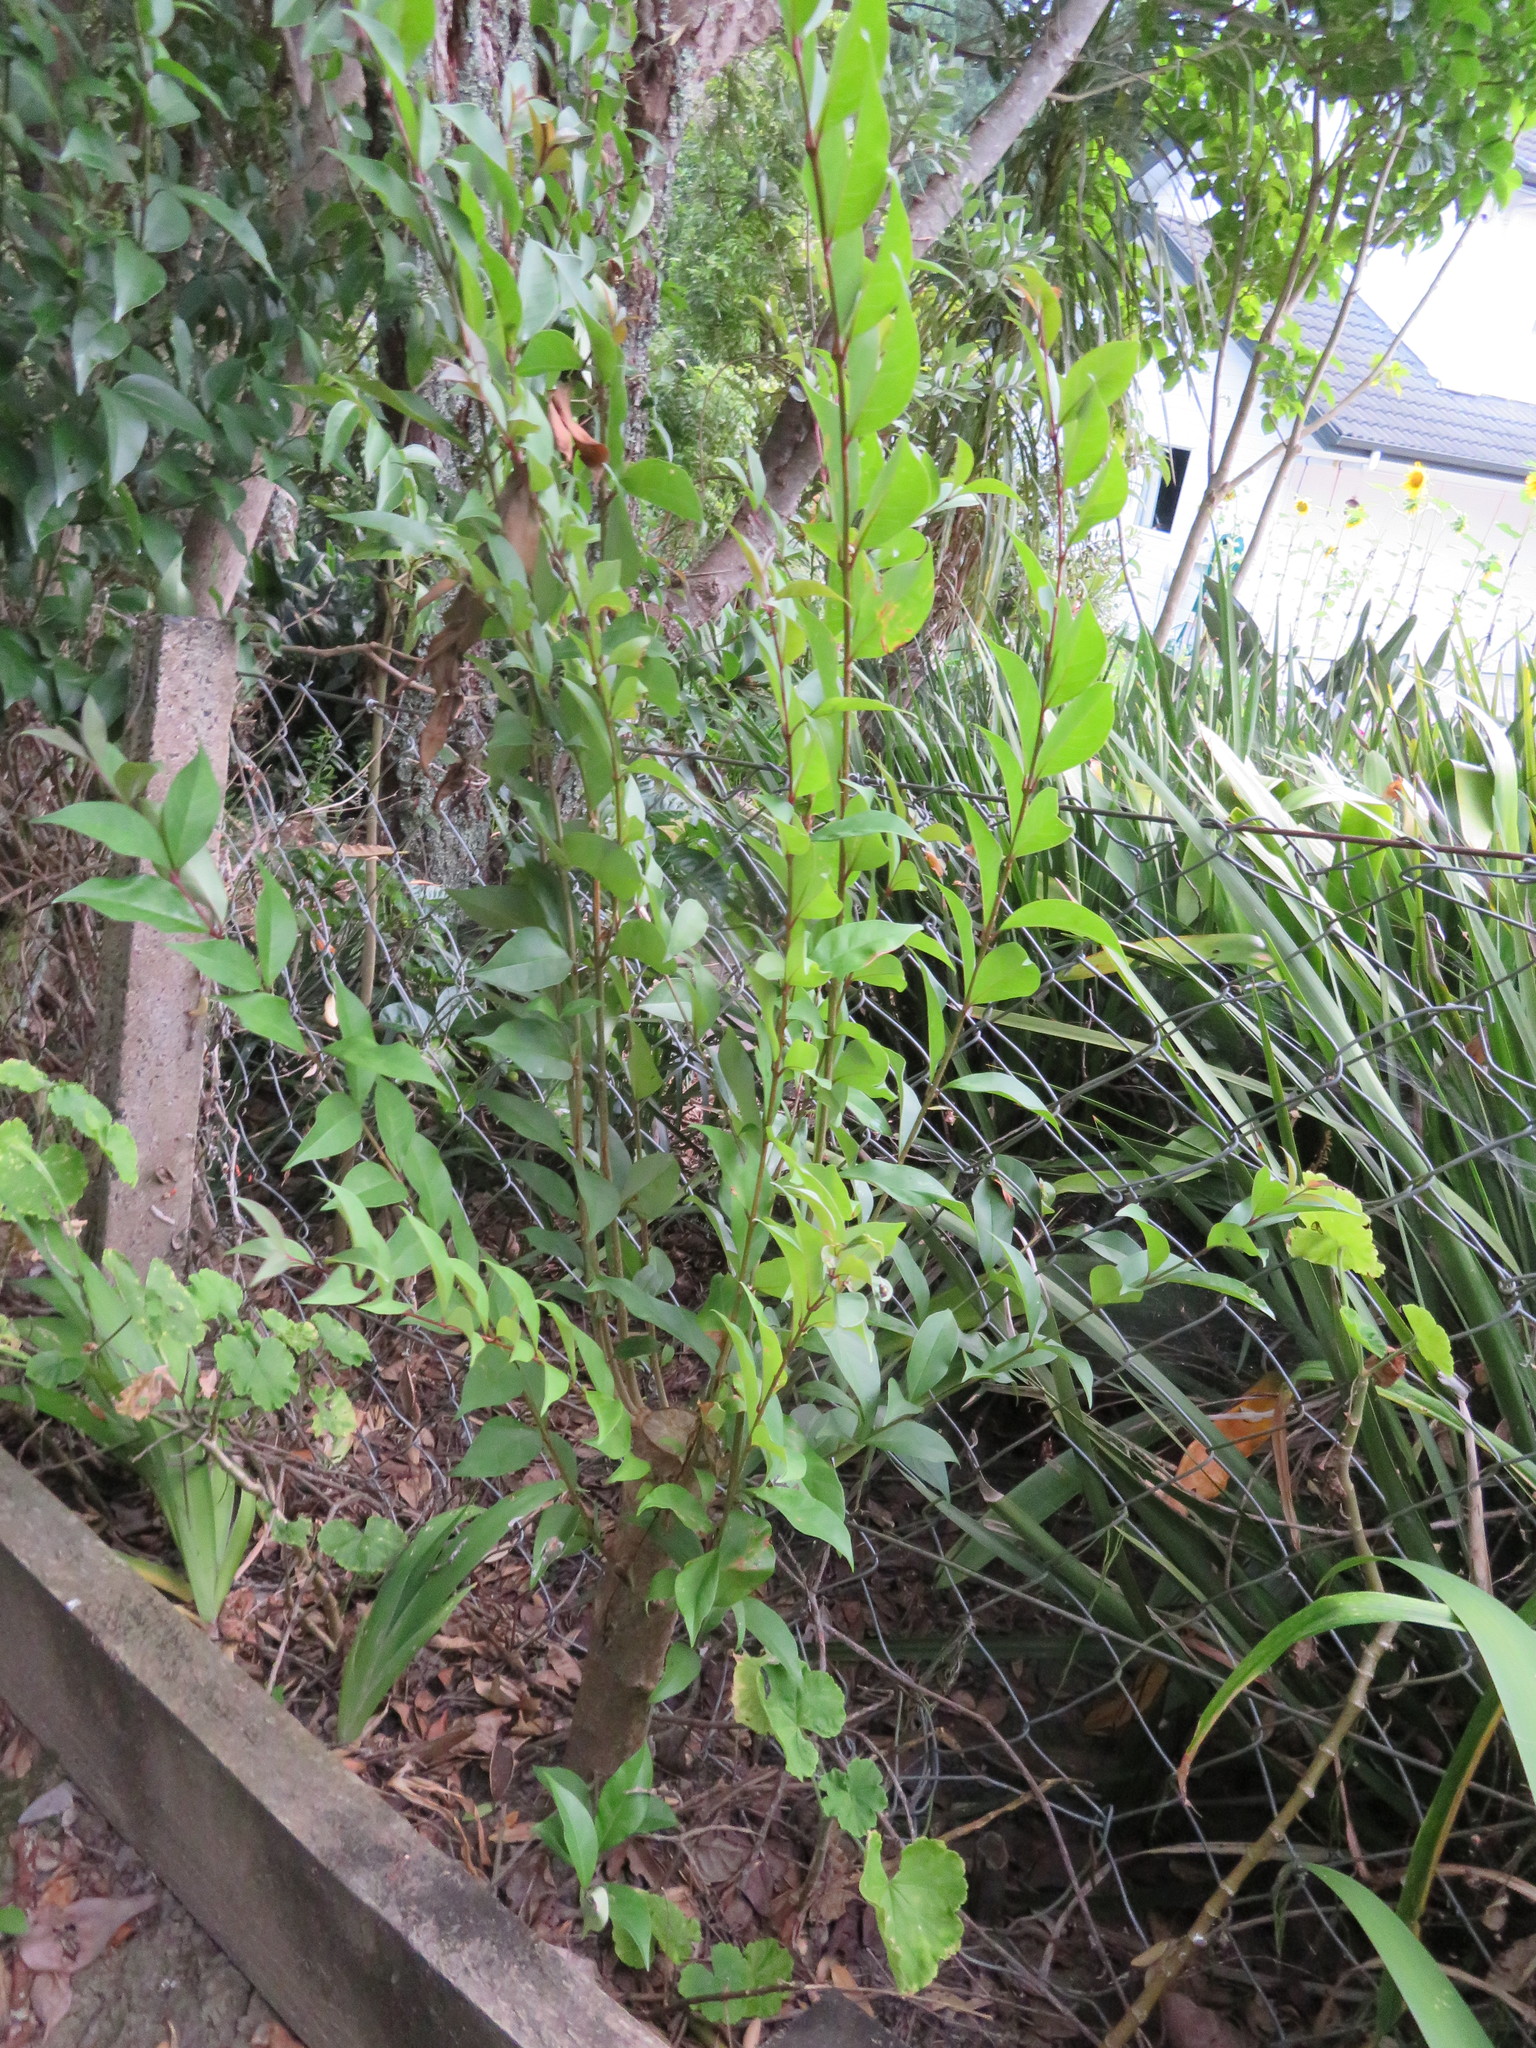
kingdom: Plantae
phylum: Tracheophyta
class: Magnoliopsida
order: Lamiales
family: Oleaceae
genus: Ligustrum
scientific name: Ligustrum lucidum
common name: Glossy privet
